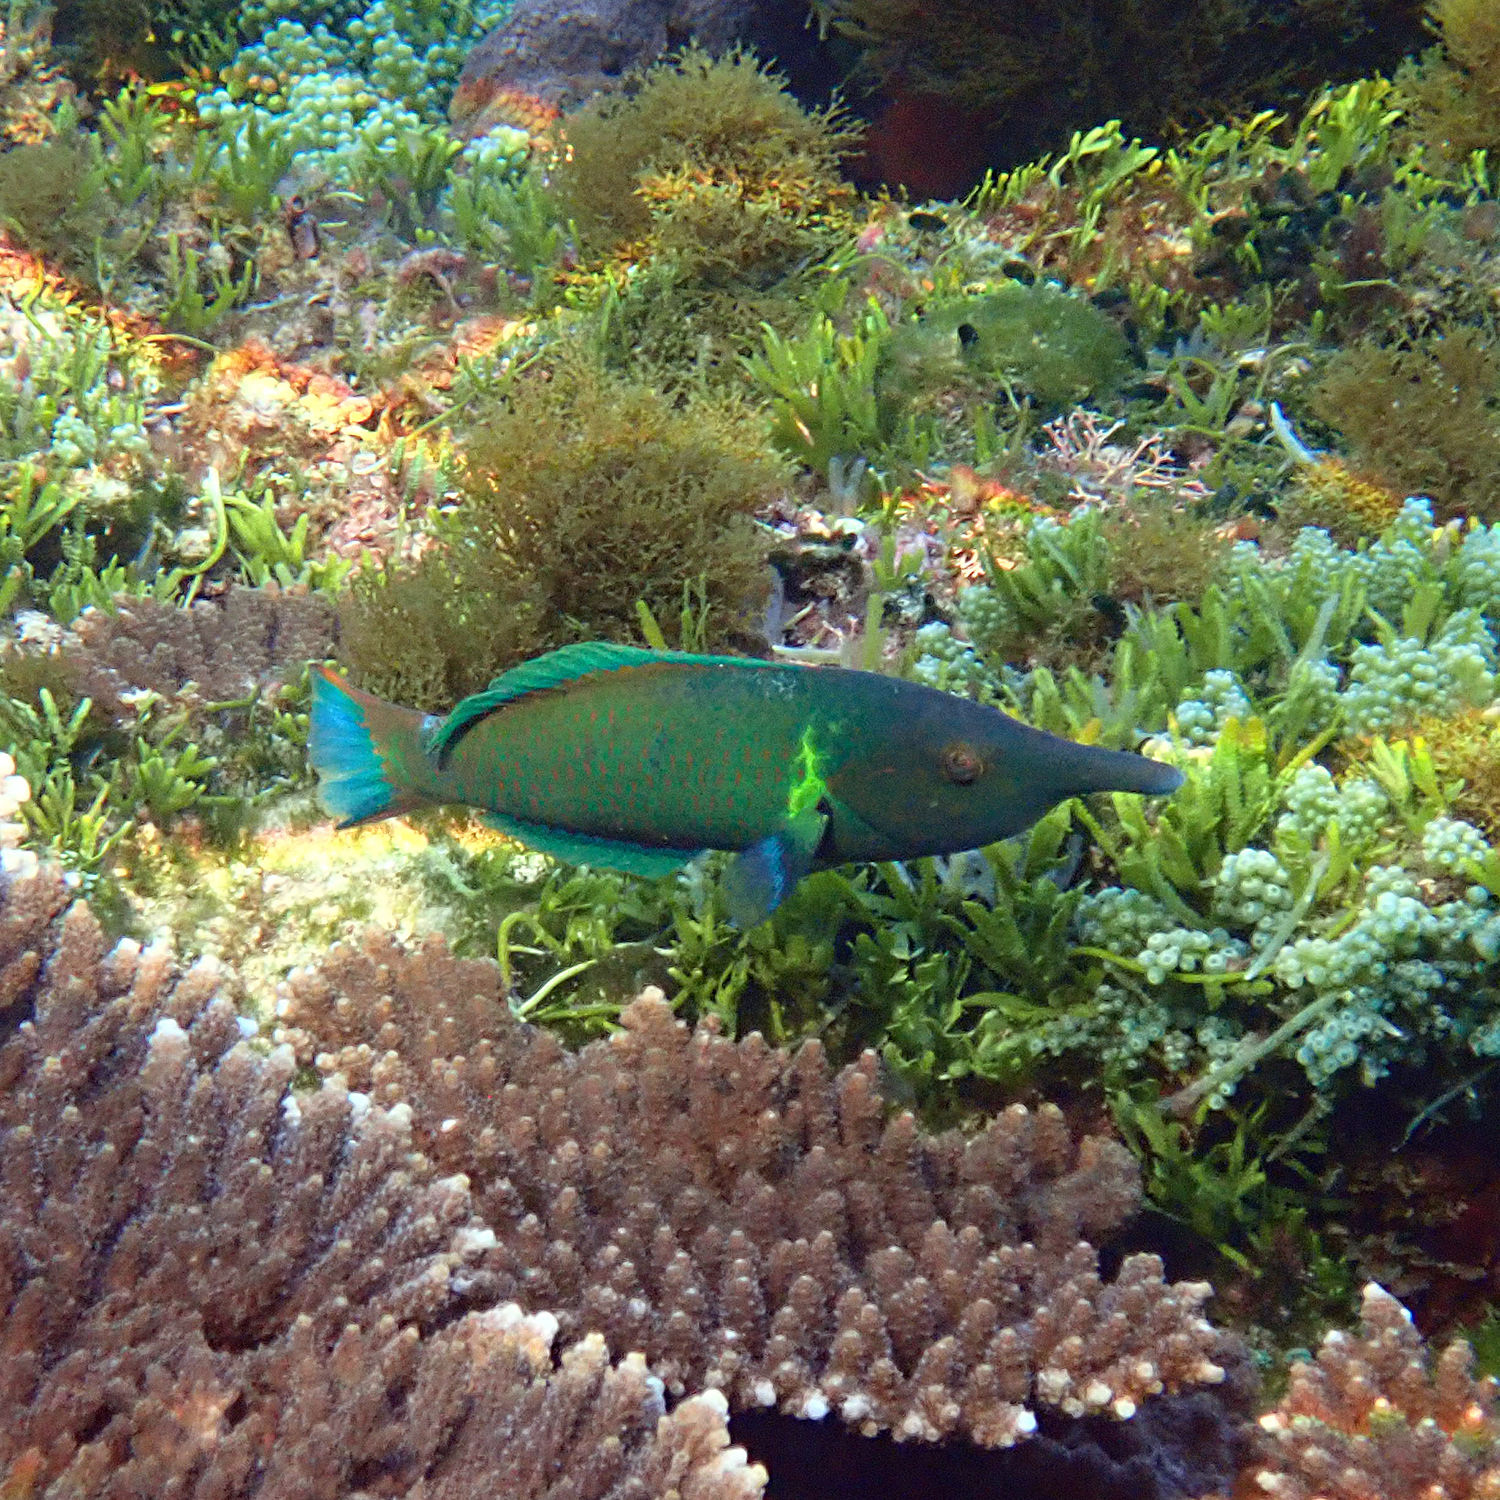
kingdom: Animalia
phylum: Chordata
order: Perciformes
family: Labridae
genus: Gomphosus
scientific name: Gomphosus varius
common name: Bird wrasse
